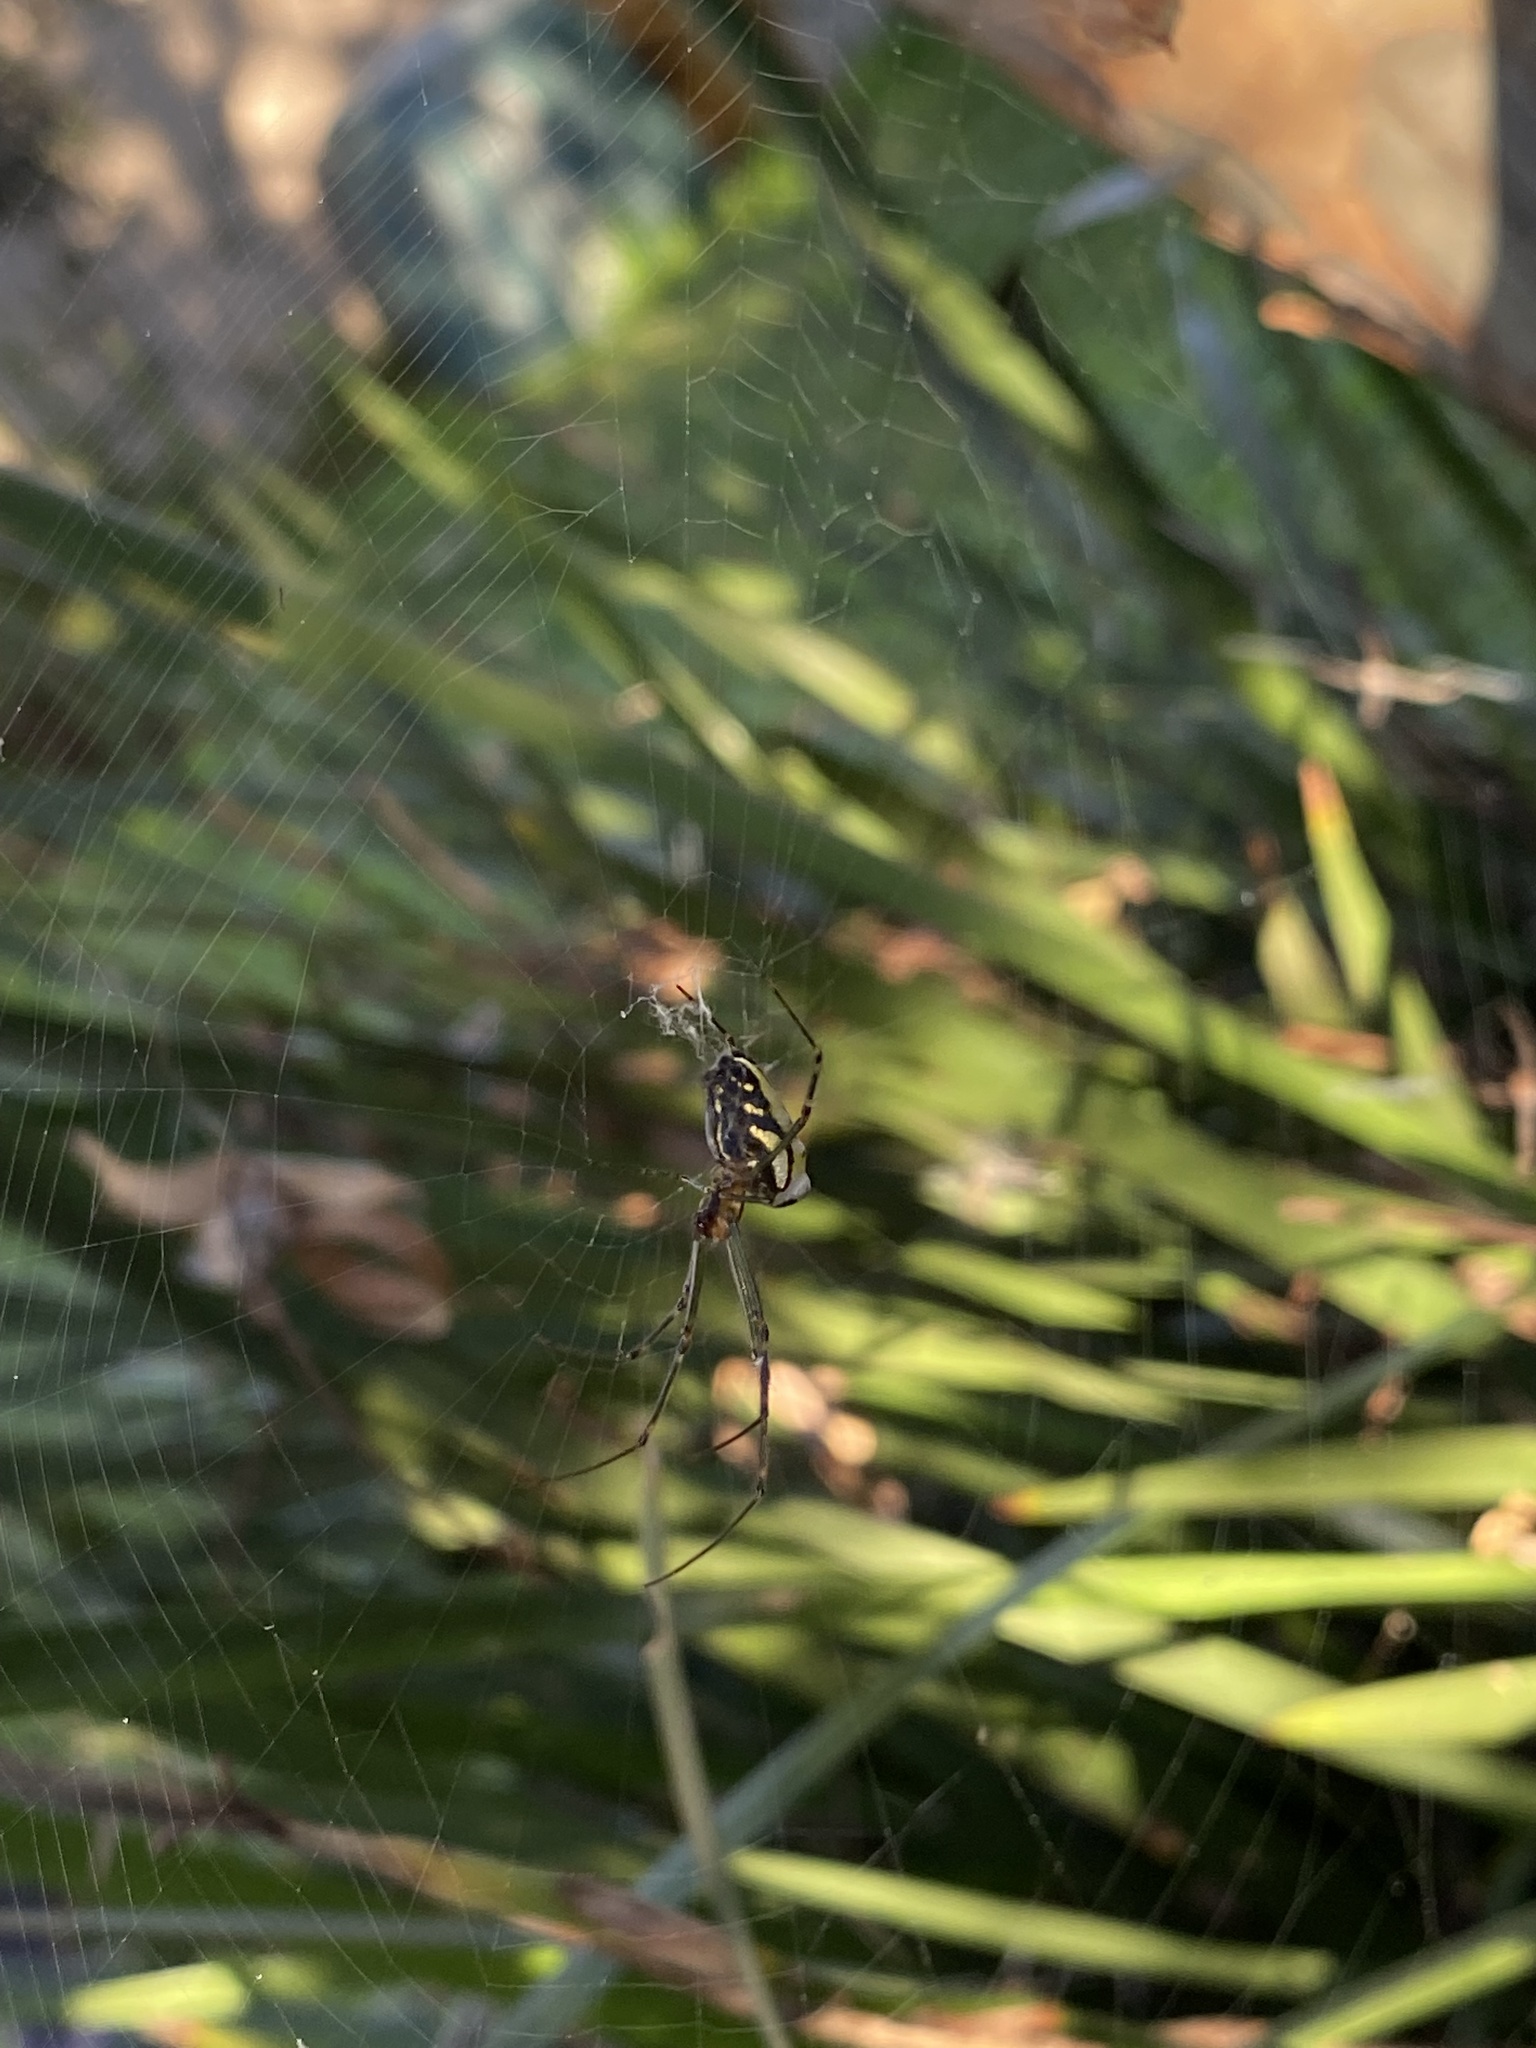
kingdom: Animalia
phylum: Arthropoda
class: Arachnida
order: Araneae
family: Tetragnathidae
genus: Leucauge
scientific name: Leucauge dromedaria
